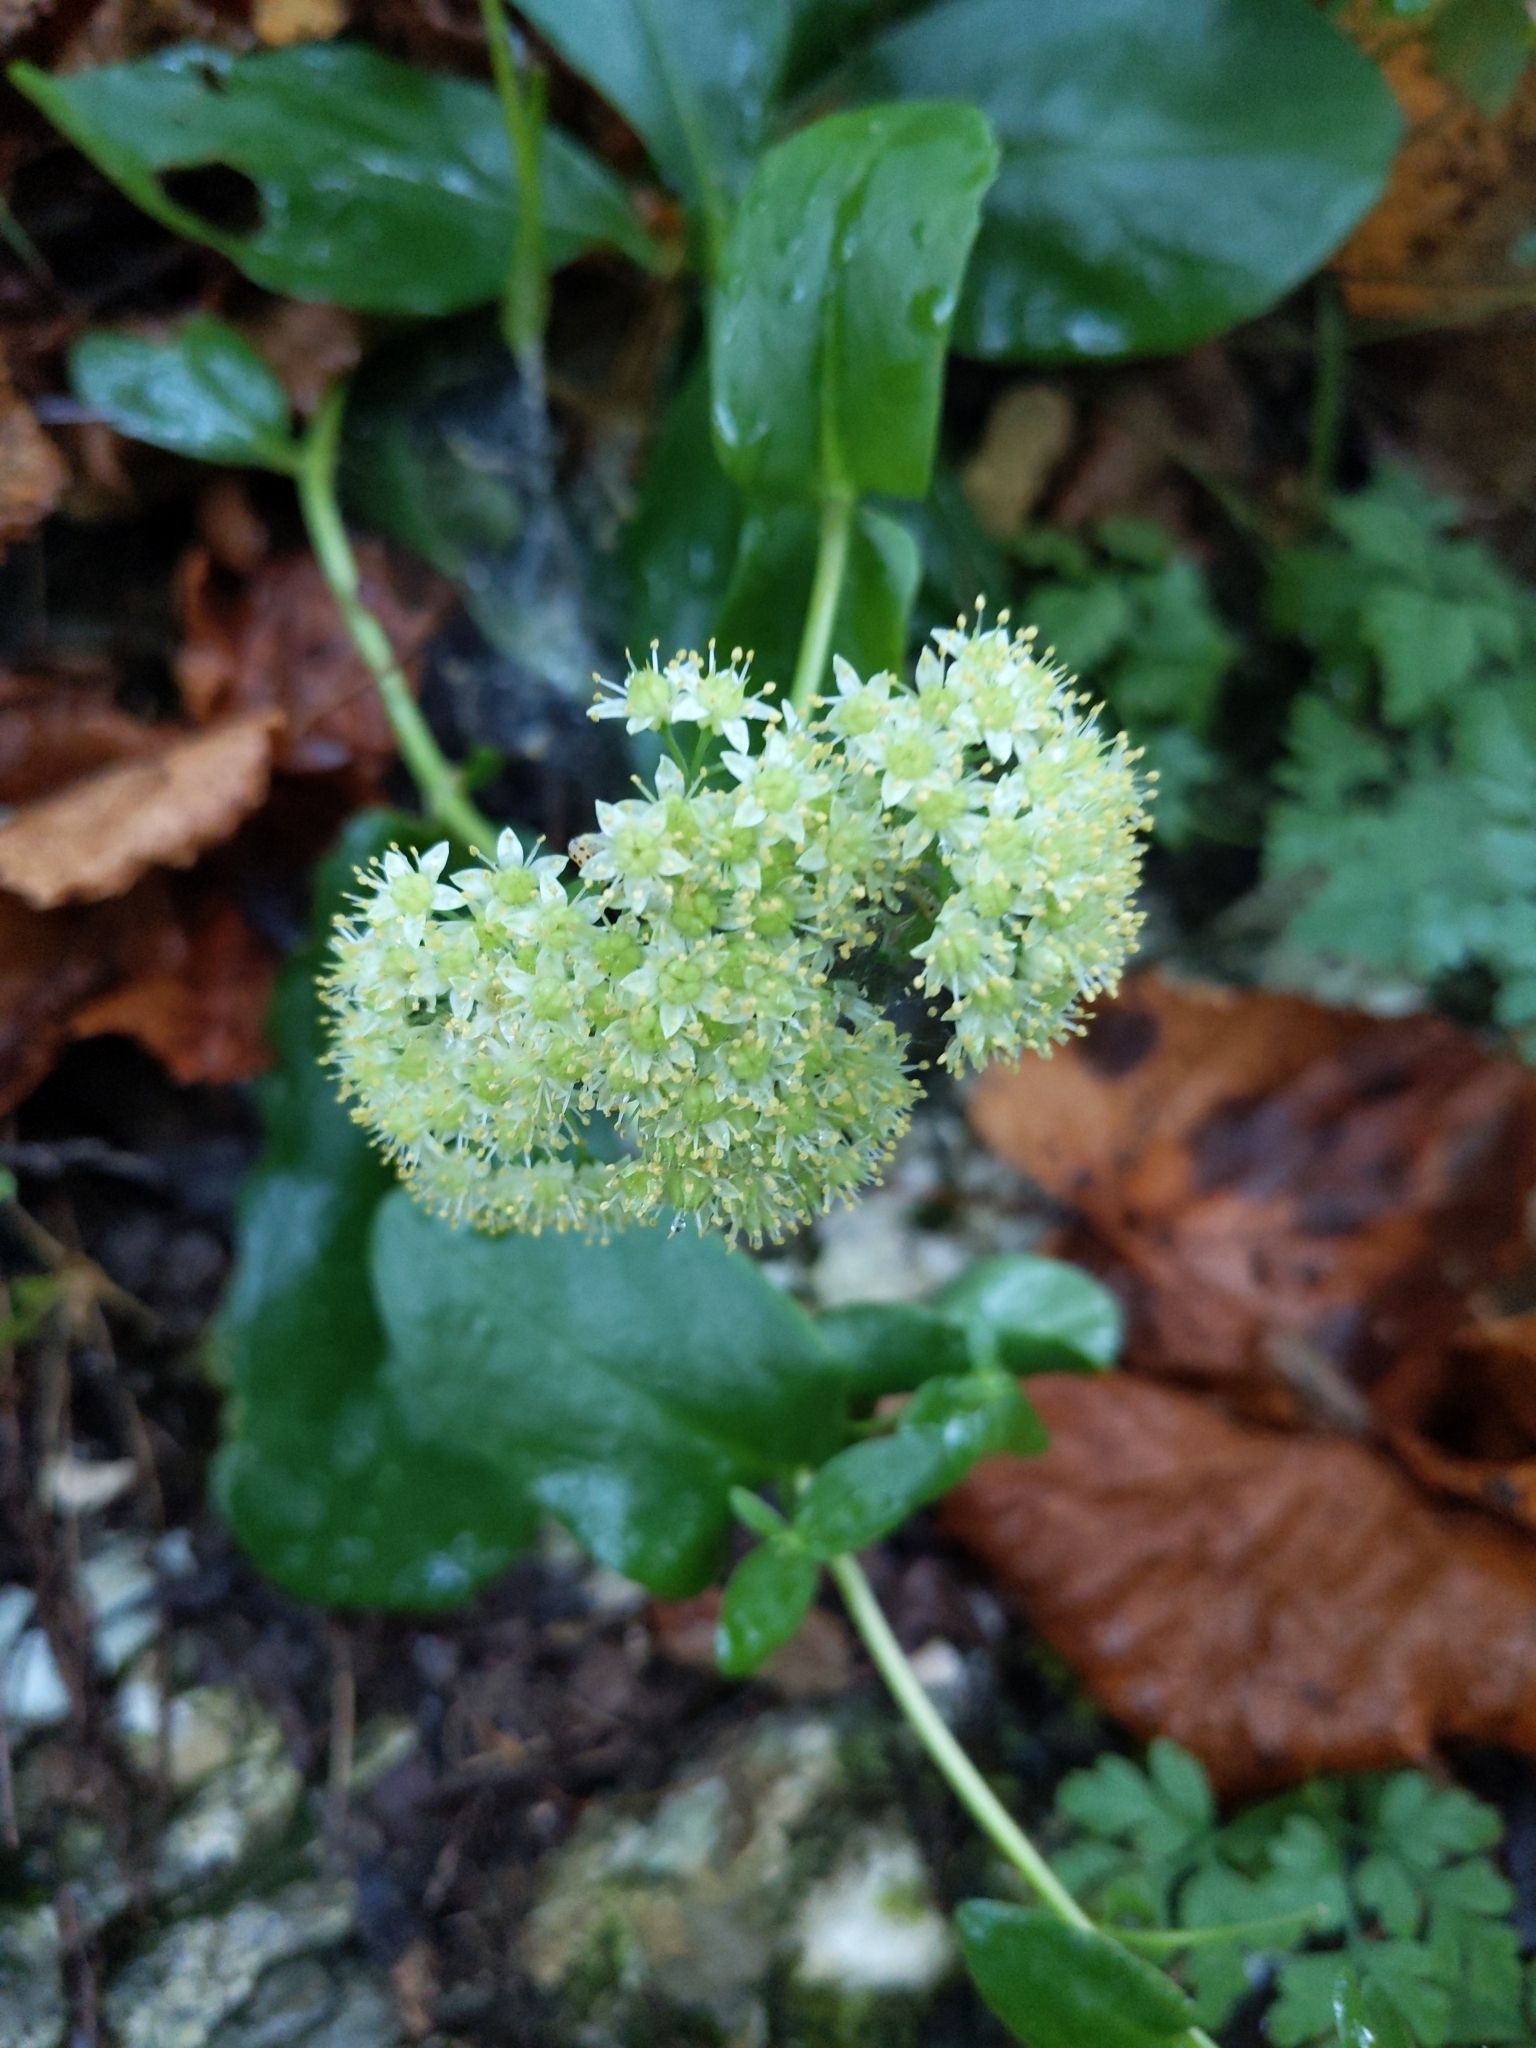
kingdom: Plantae
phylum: Tracheophyta
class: Magnoliopsida
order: Saxifragales
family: Crassulaceae
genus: Hylotelephium
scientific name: Hylotelephium maximum
